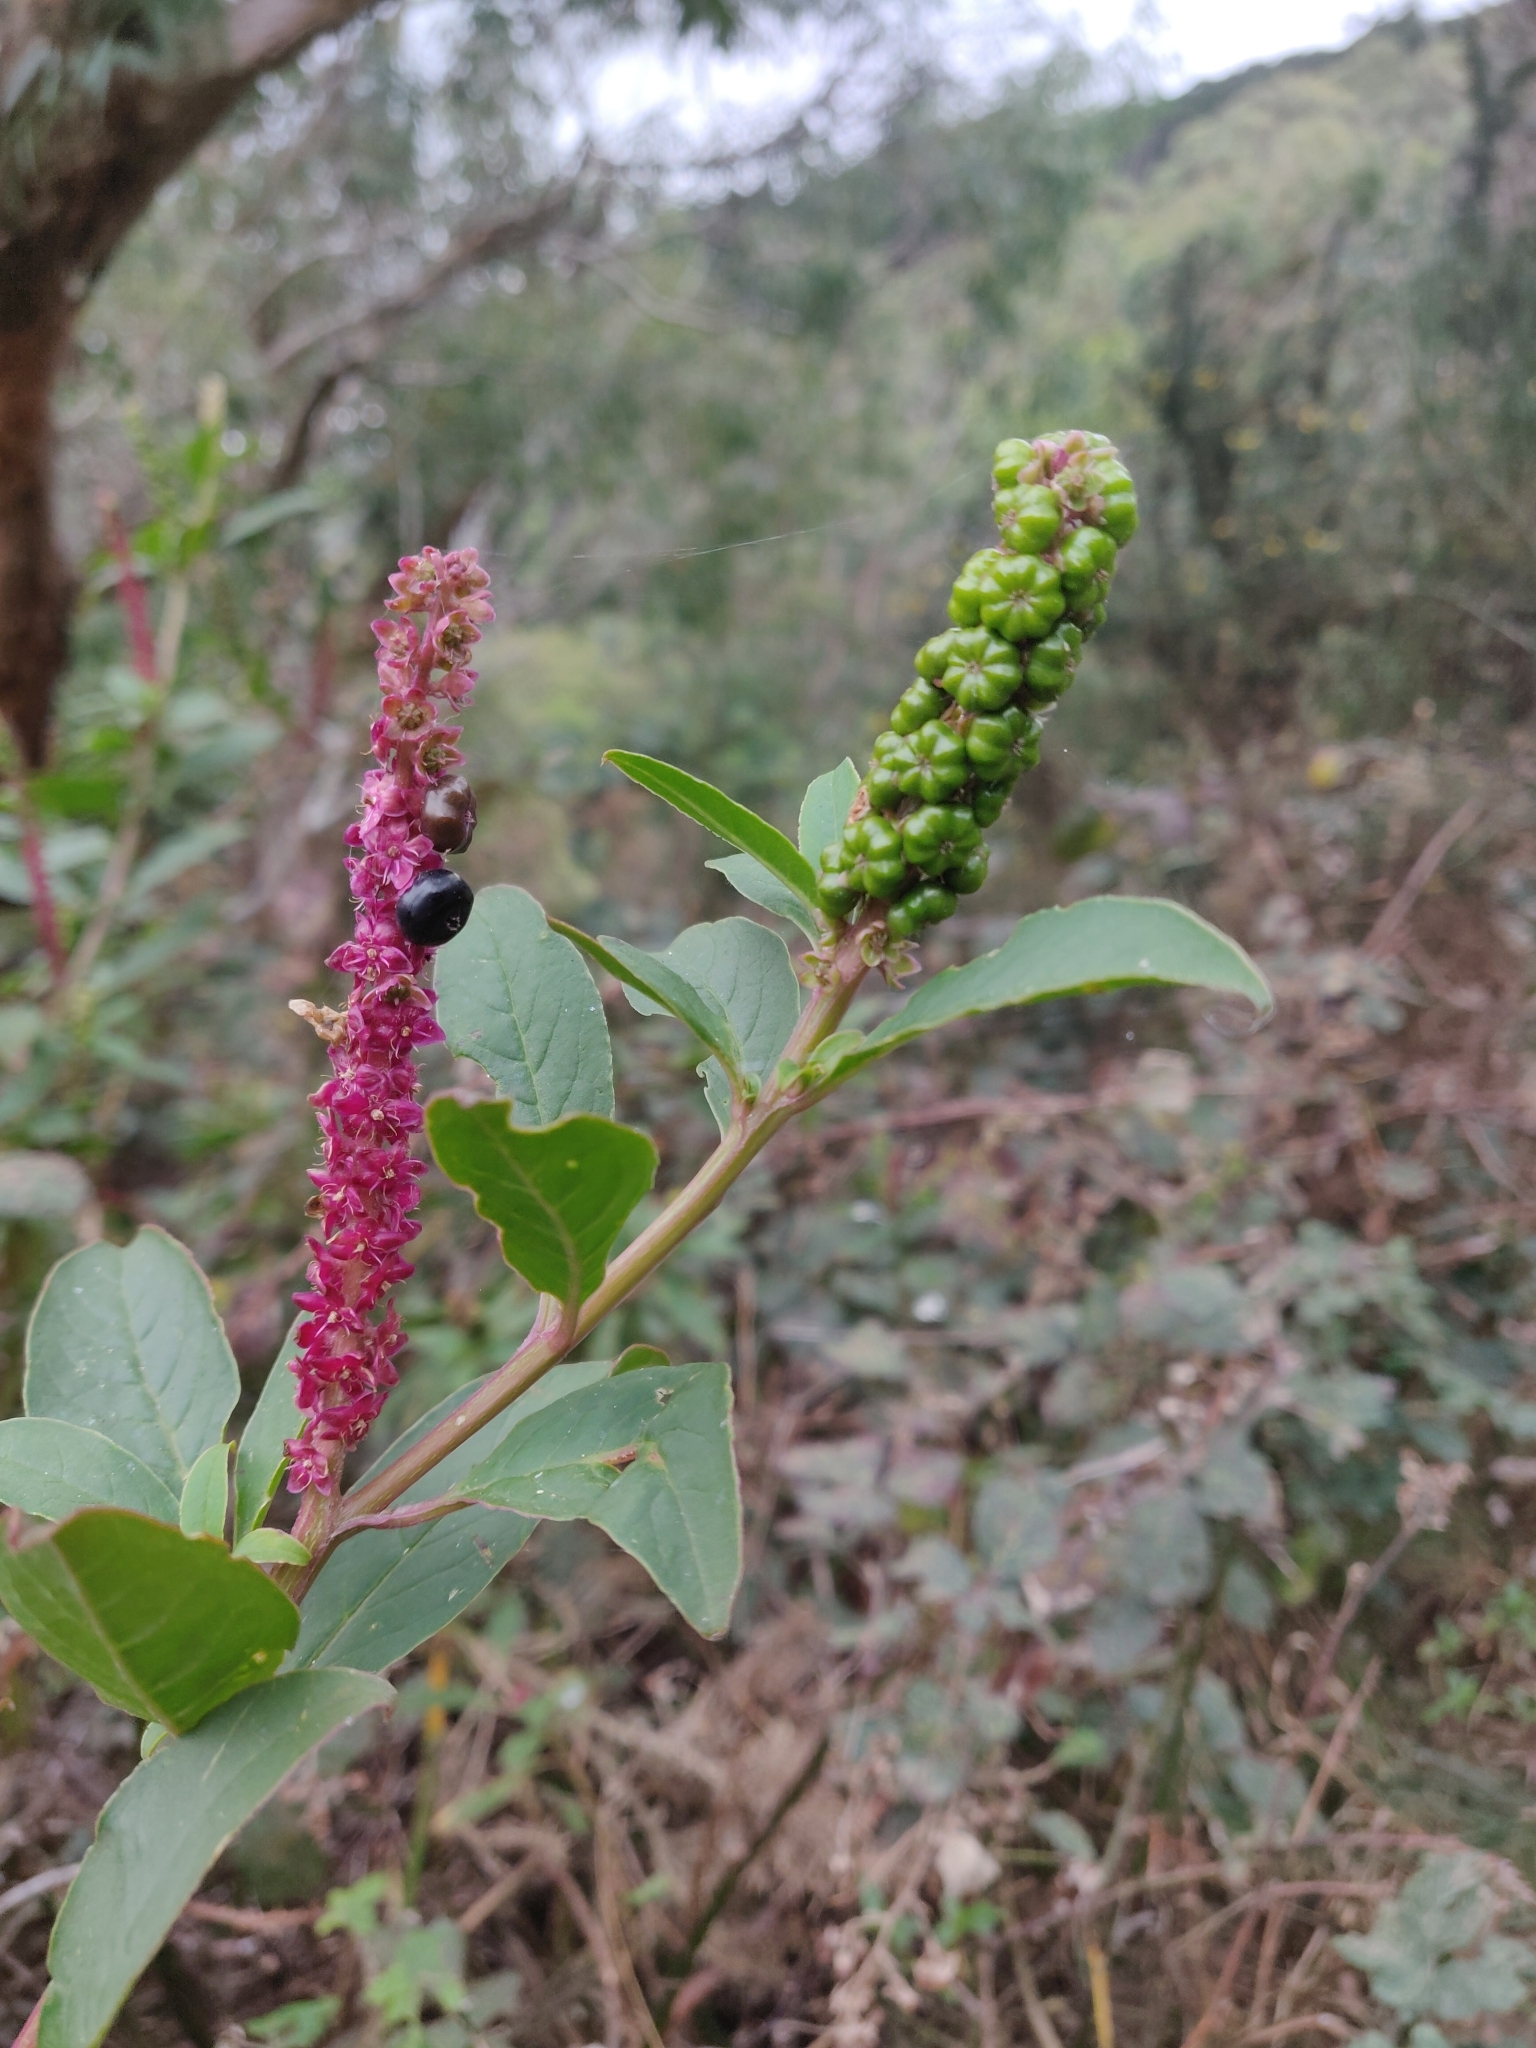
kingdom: Plantae
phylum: Tracheophyta
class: Magnoliopsida
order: Caryophyllales
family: Phytolaccaceae
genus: Phytolacca
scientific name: Phytolacca icosandra
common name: Button pokeweed
